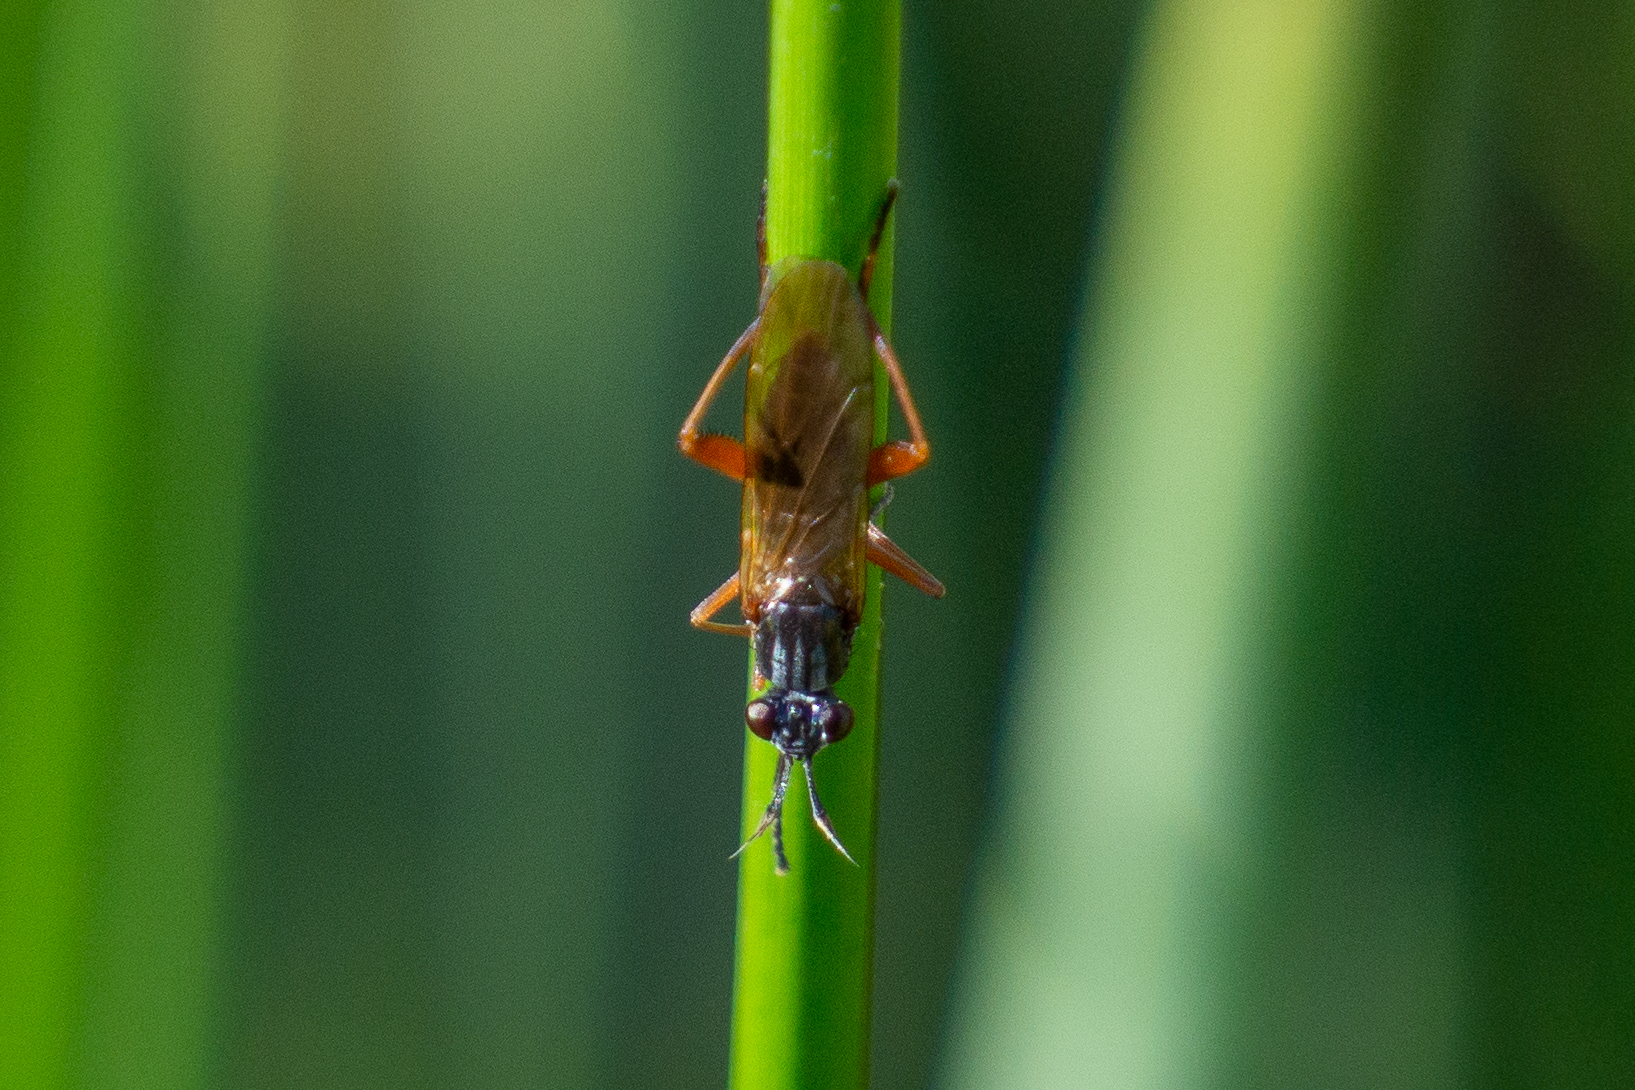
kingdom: Animalia
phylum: Arthropoda
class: Insecta
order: Diptera
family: Sciomyzidae
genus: Sepedon
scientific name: Sepedon sphegea
